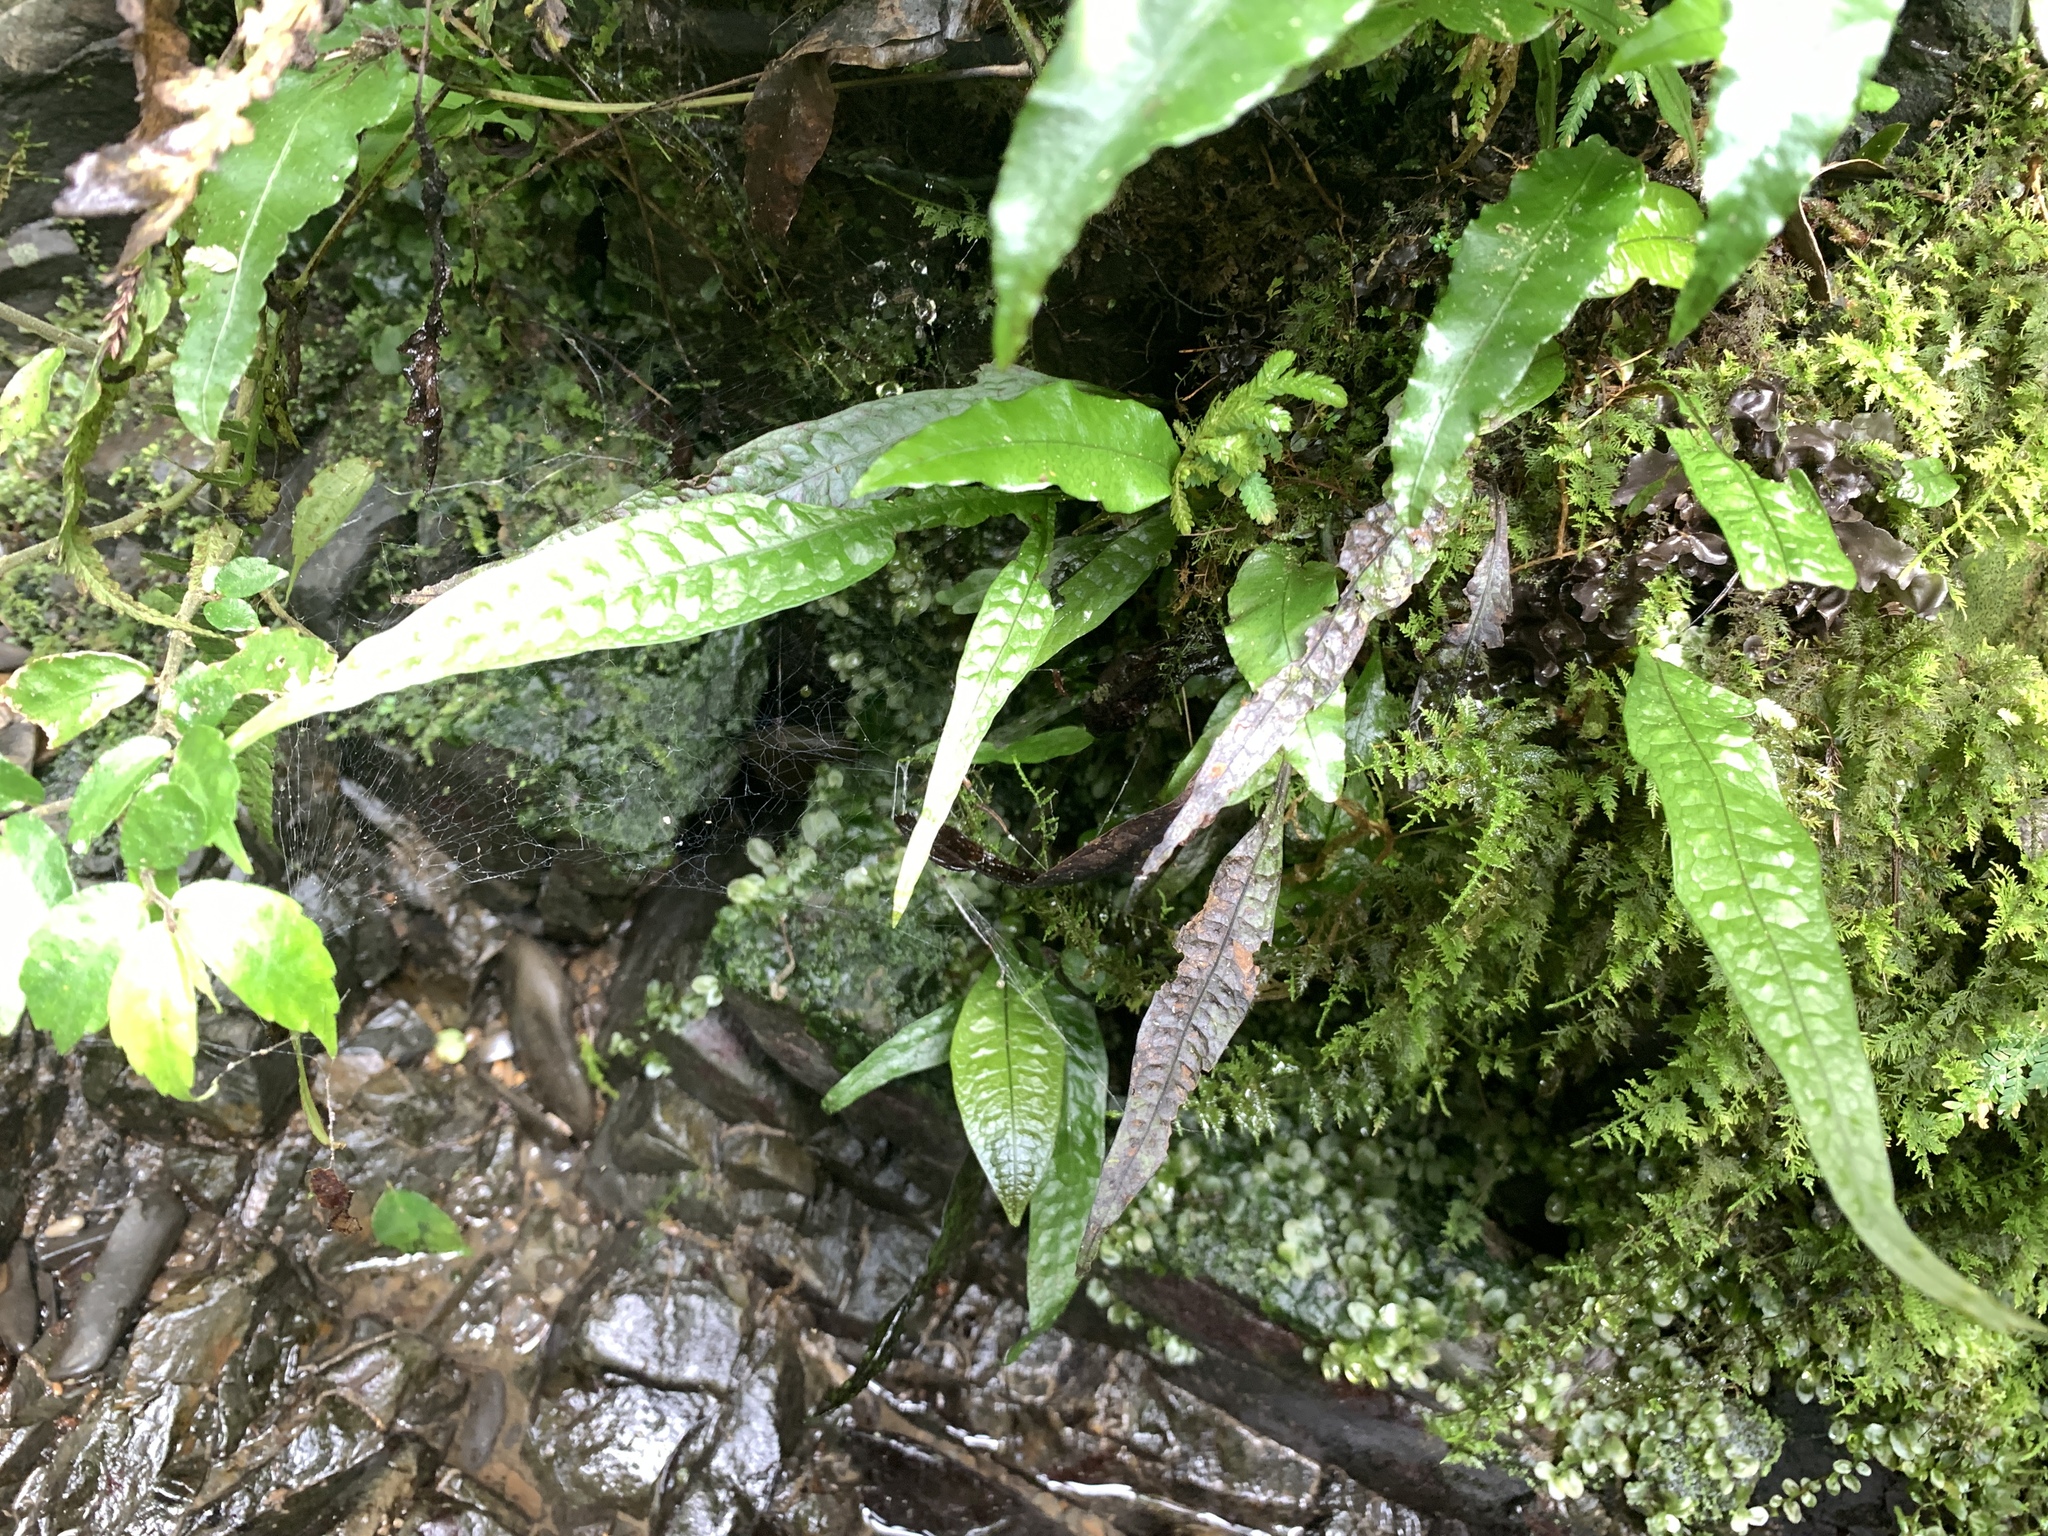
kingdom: Plantae
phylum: Tracheophyta
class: Polypodiopsida
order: Polypodiales
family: Polypodiaceae
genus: Leptochilus
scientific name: Leptochilus pteropus
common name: Java fern
